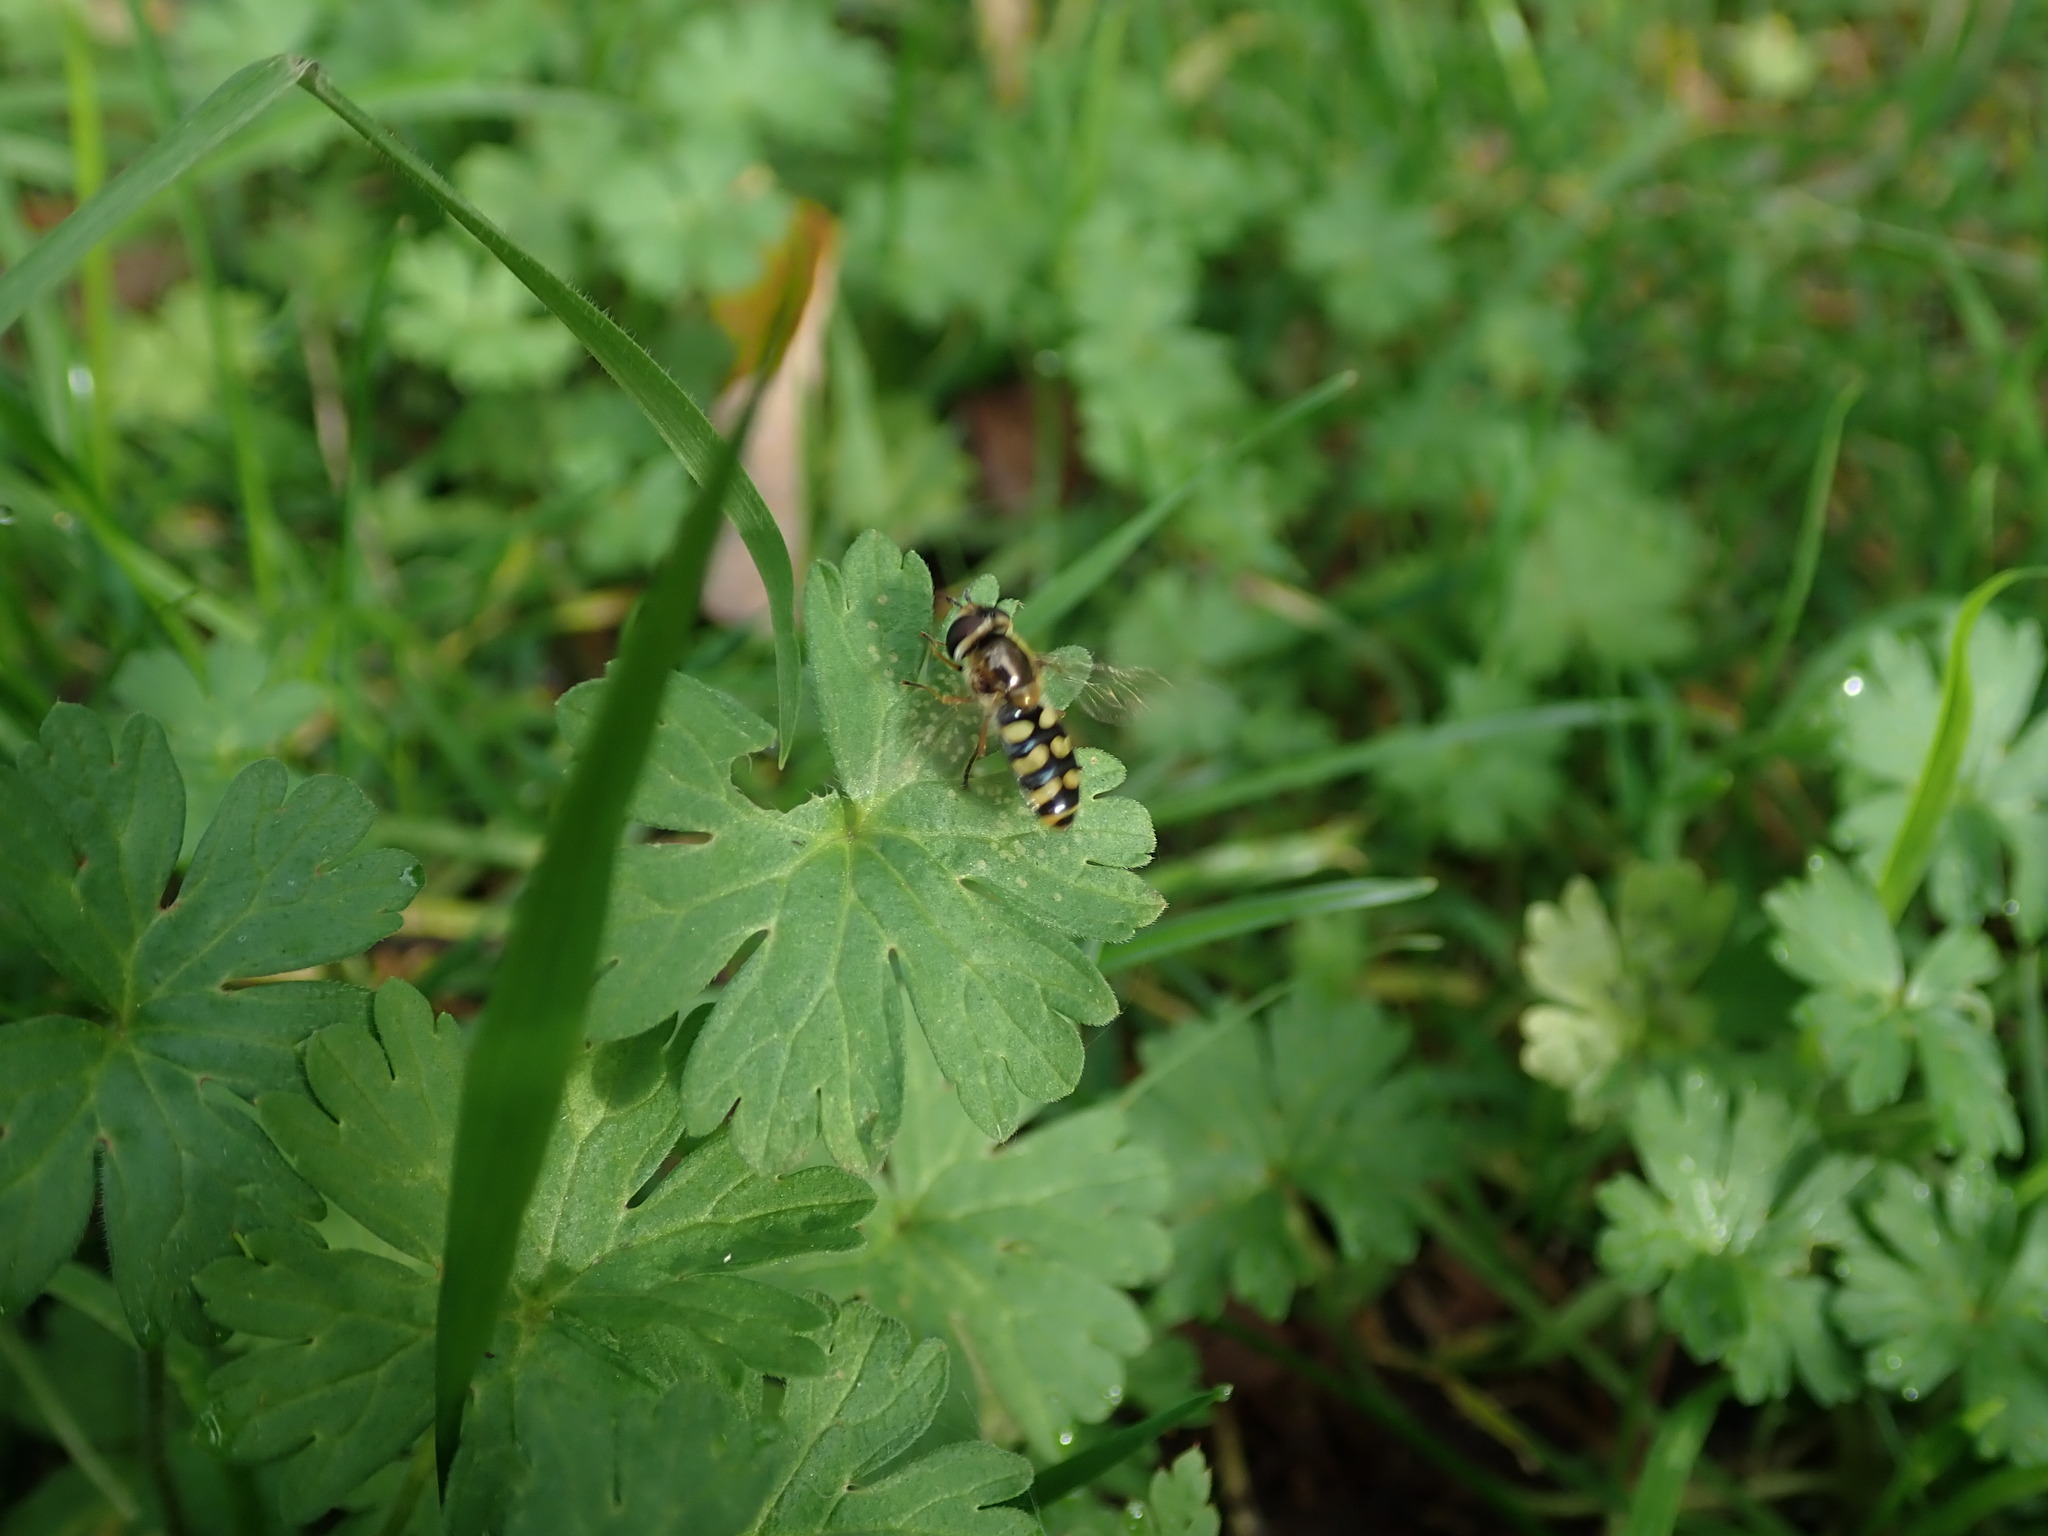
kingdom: Animalia
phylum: Arthropoda
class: Insecta
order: Diptera
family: Syrphidae
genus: Eupeodes
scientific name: Eupeodes
